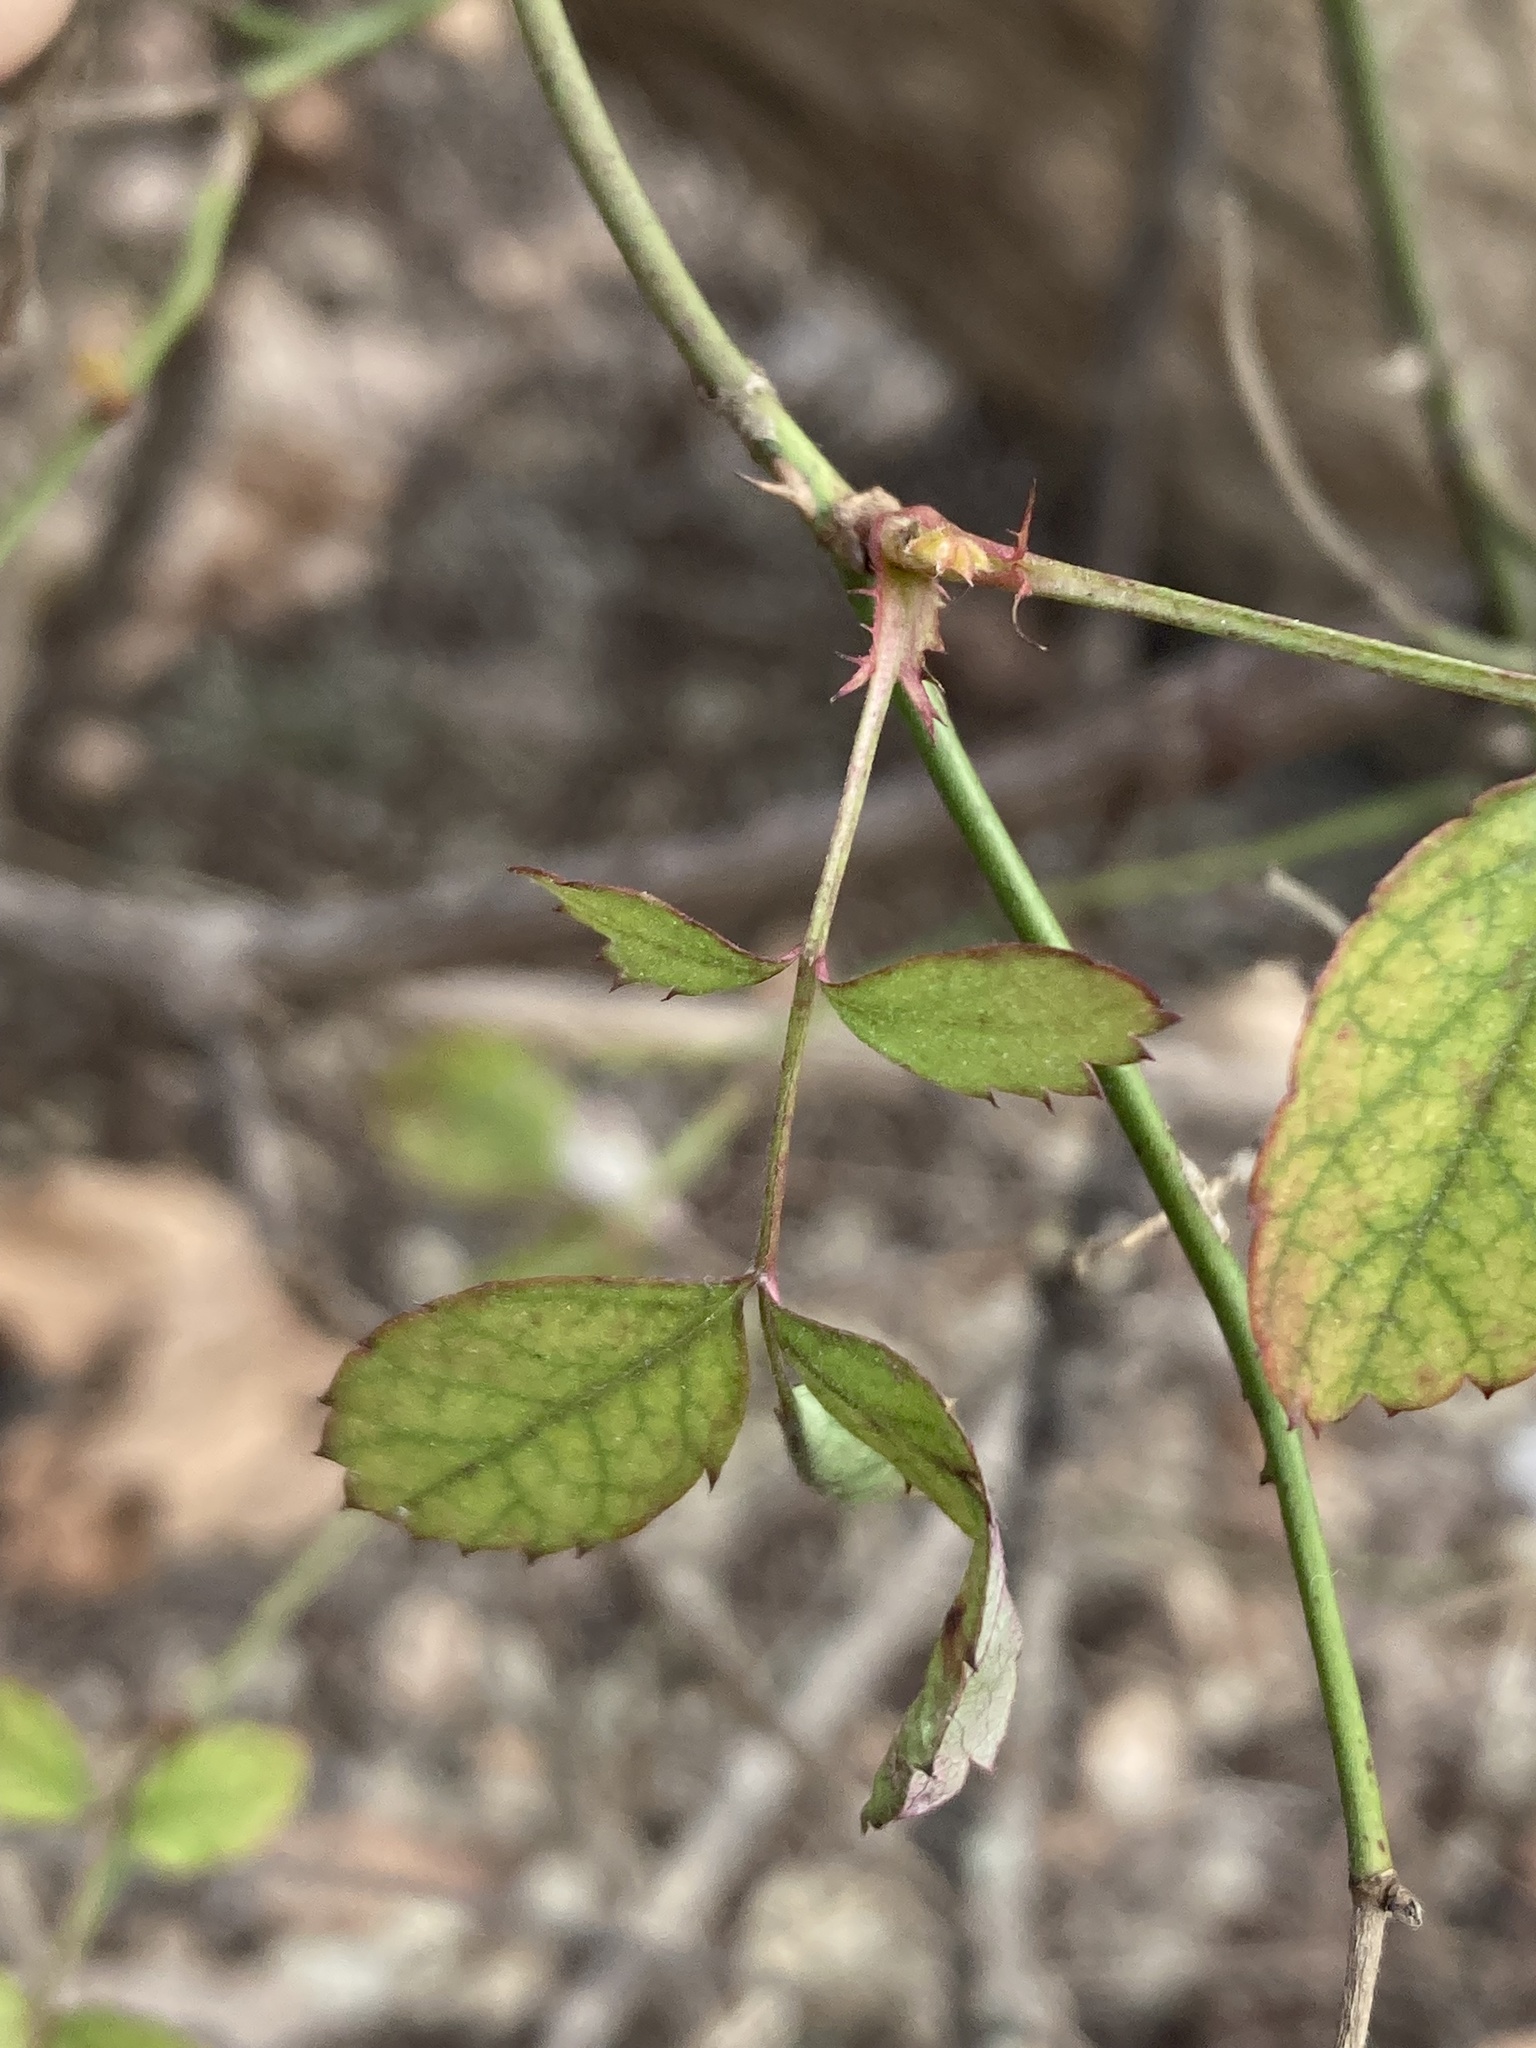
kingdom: Plantae
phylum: Tracheophyta
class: Magnoliopsida
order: Rosales
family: Rosaceae
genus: Rosa
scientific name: Rosa multiflora
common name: Multiflora rose
